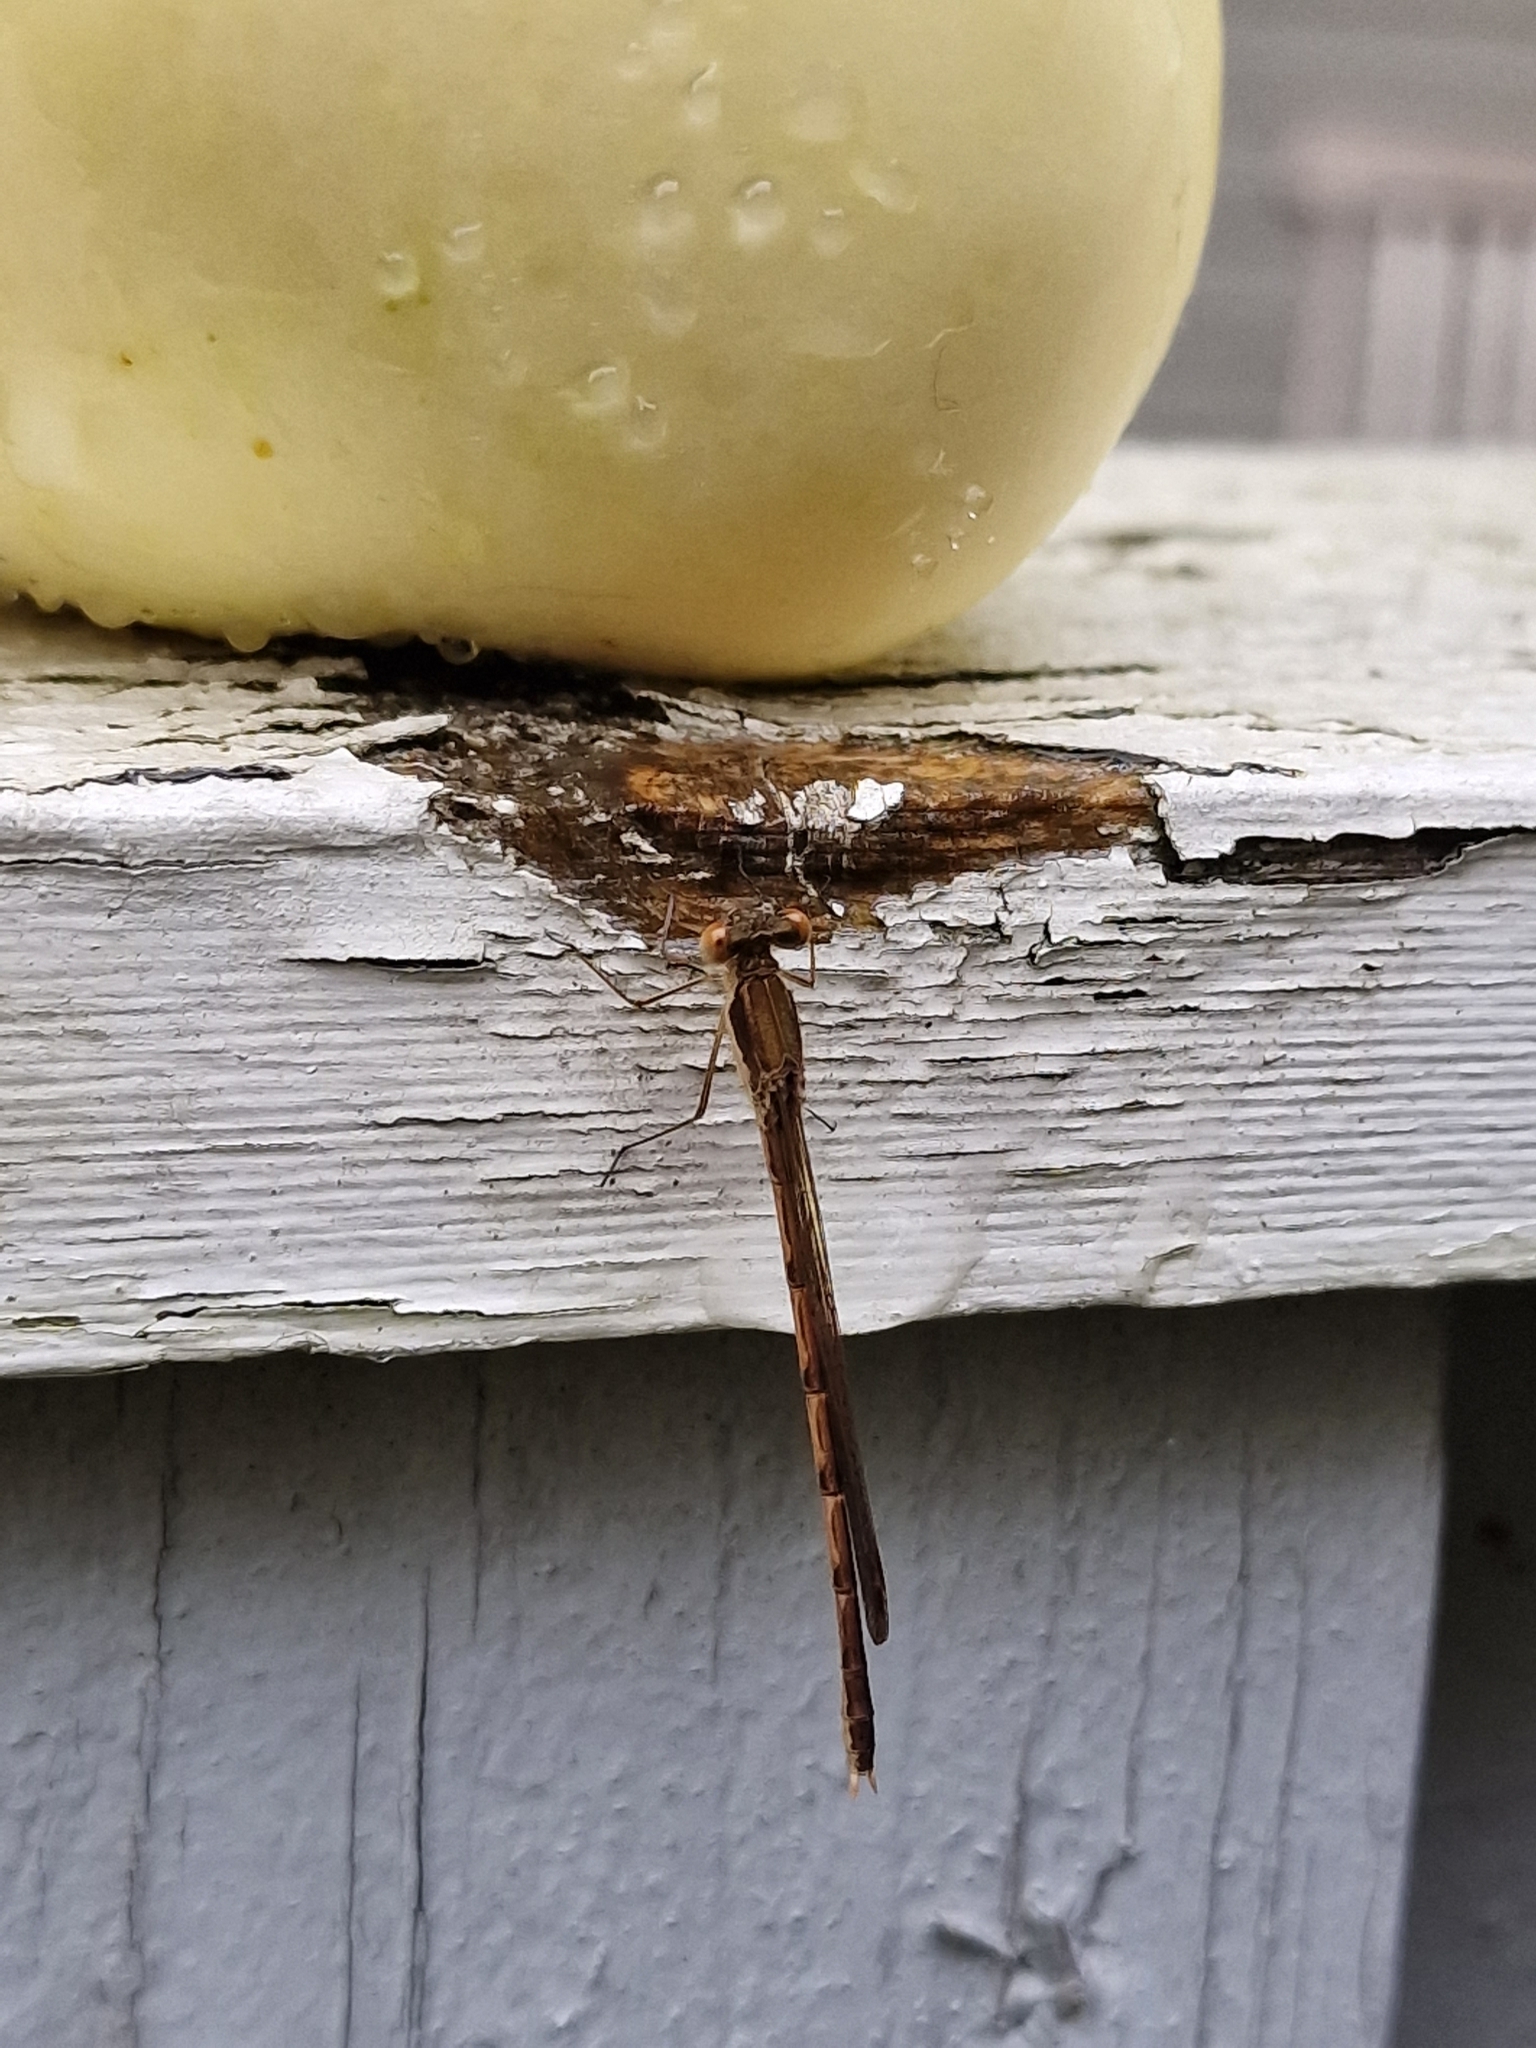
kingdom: Animalia
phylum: Arthropoda
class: Insecta
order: Odonata
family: Lestidae
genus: Sympecma
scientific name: Sympecma fusca
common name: Common winter damsel
